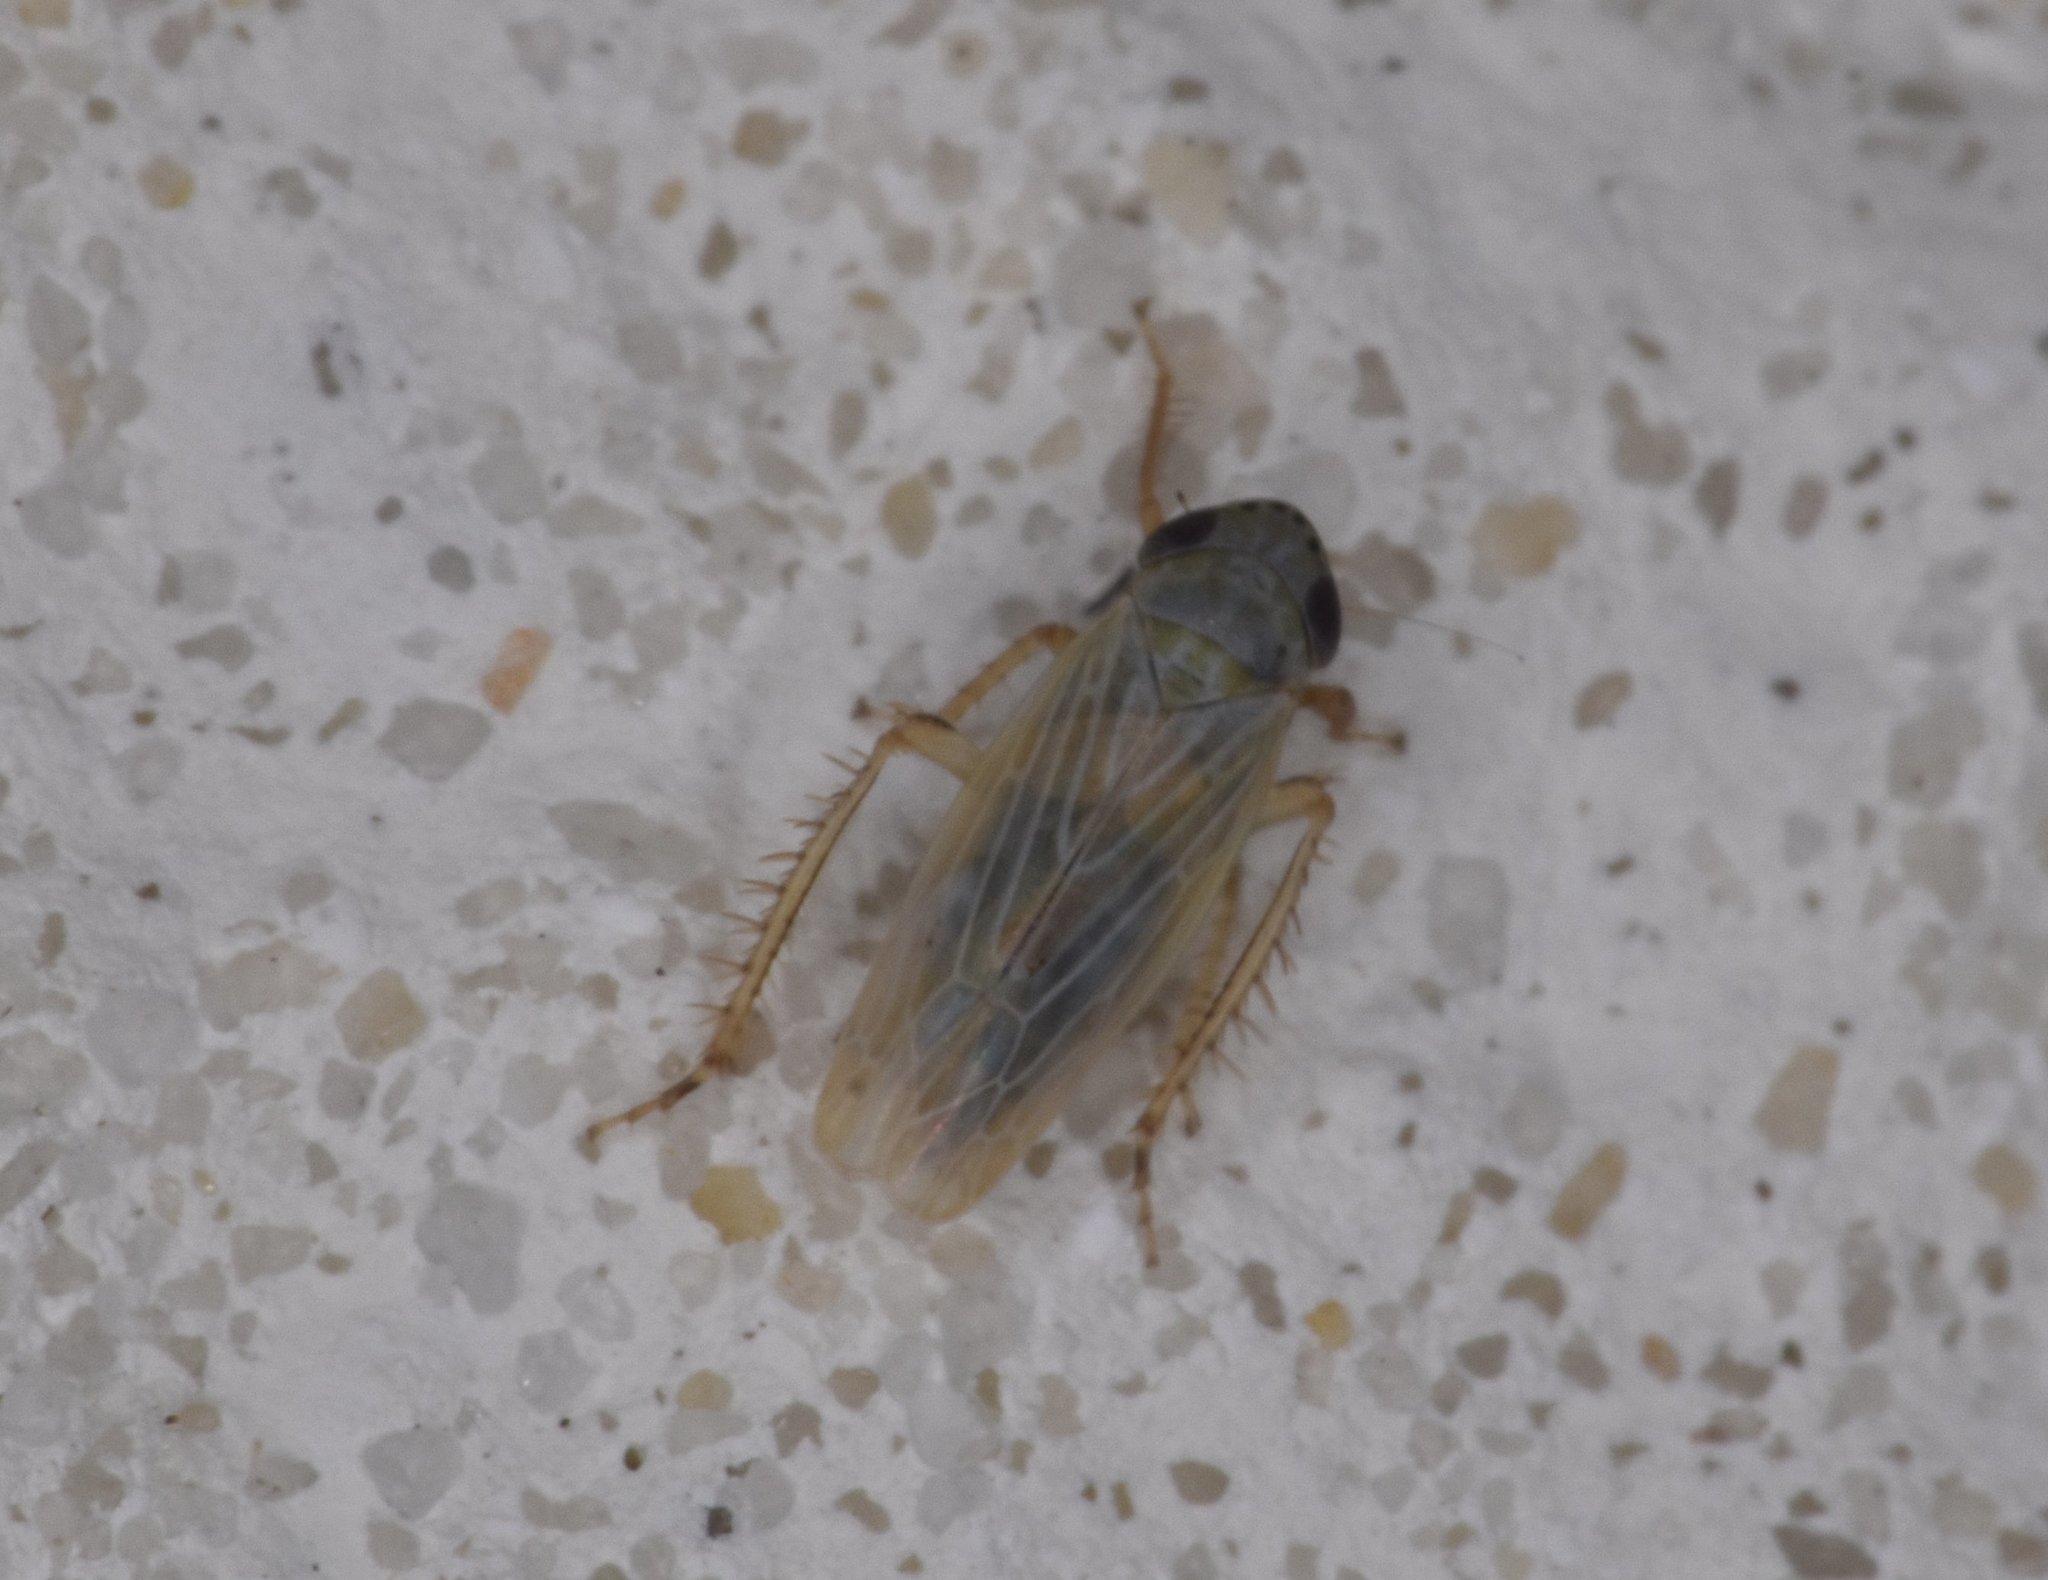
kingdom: Animalia
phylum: Arthropoda
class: Insecta
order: Hemiptera
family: Cicadellidae
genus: Graminella
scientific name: Graminella nigrifrons
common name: Blackfaced leafhopper
